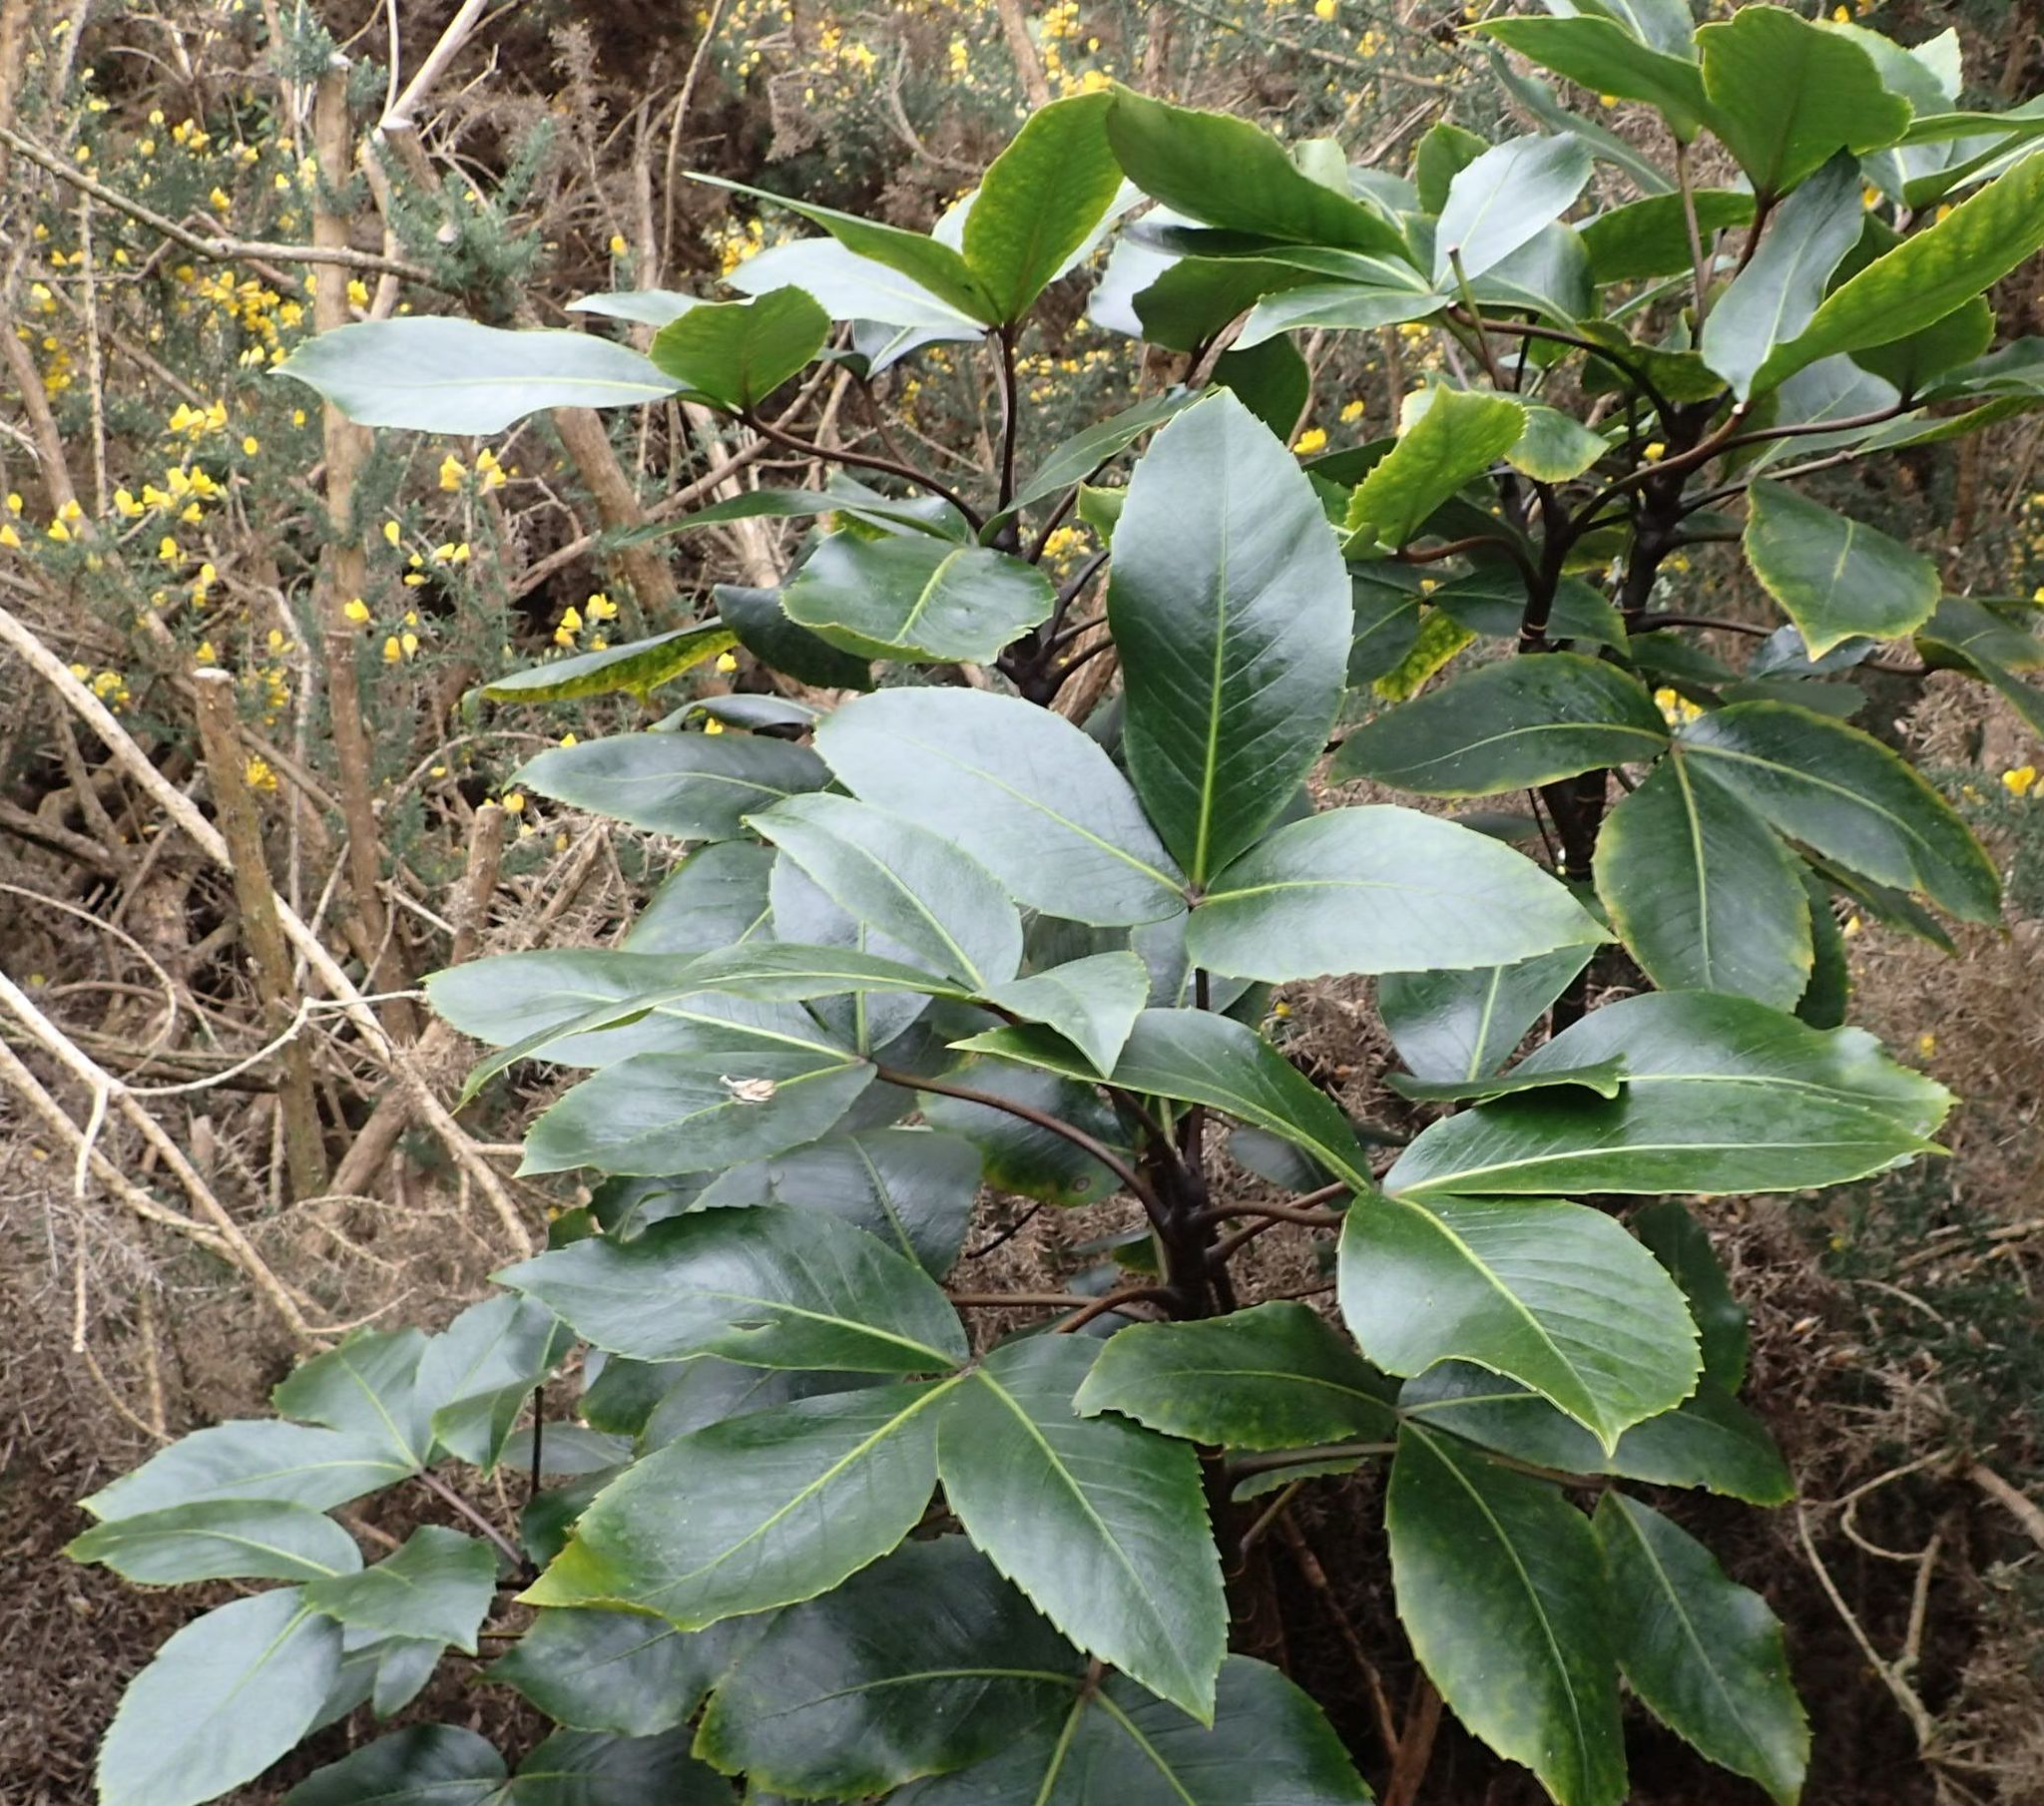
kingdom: Plantae
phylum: Tracheophyta
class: Magnoliopsida
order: Apiales
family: Araliaceae
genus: Neopanax
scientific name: Neopanax colensoi
